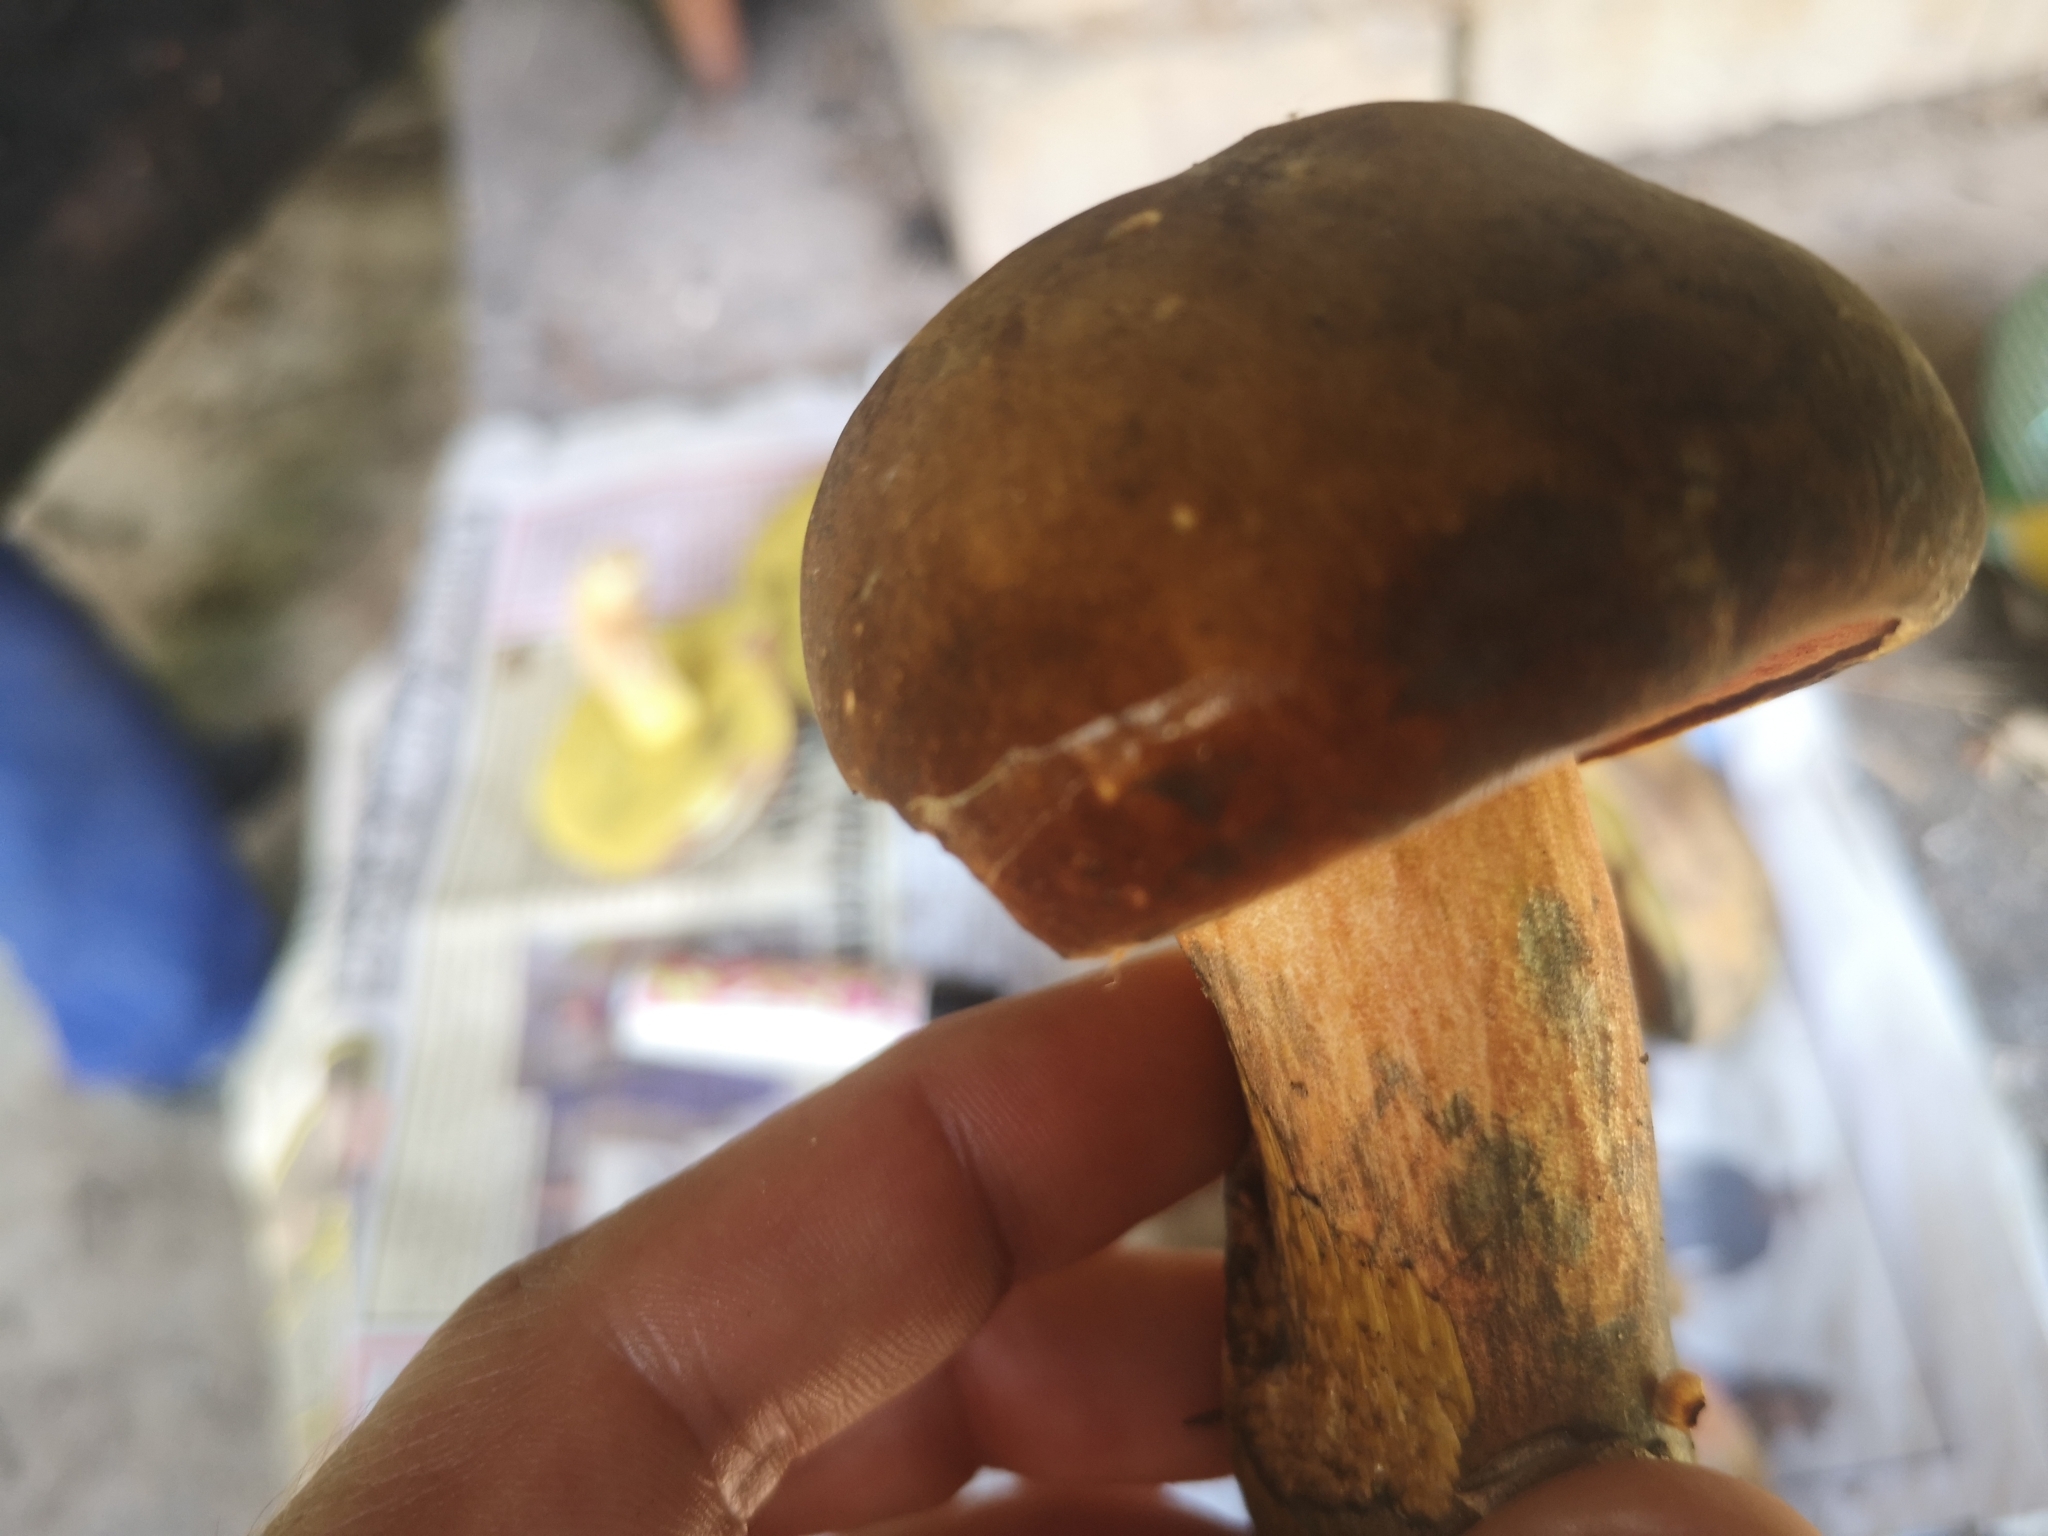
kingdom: Fungi
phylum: Basidiomycota
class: Agaricomycetes
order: Boletales
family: Boletaceae
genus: Neoboletus
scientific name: Neoboletus erythropus
